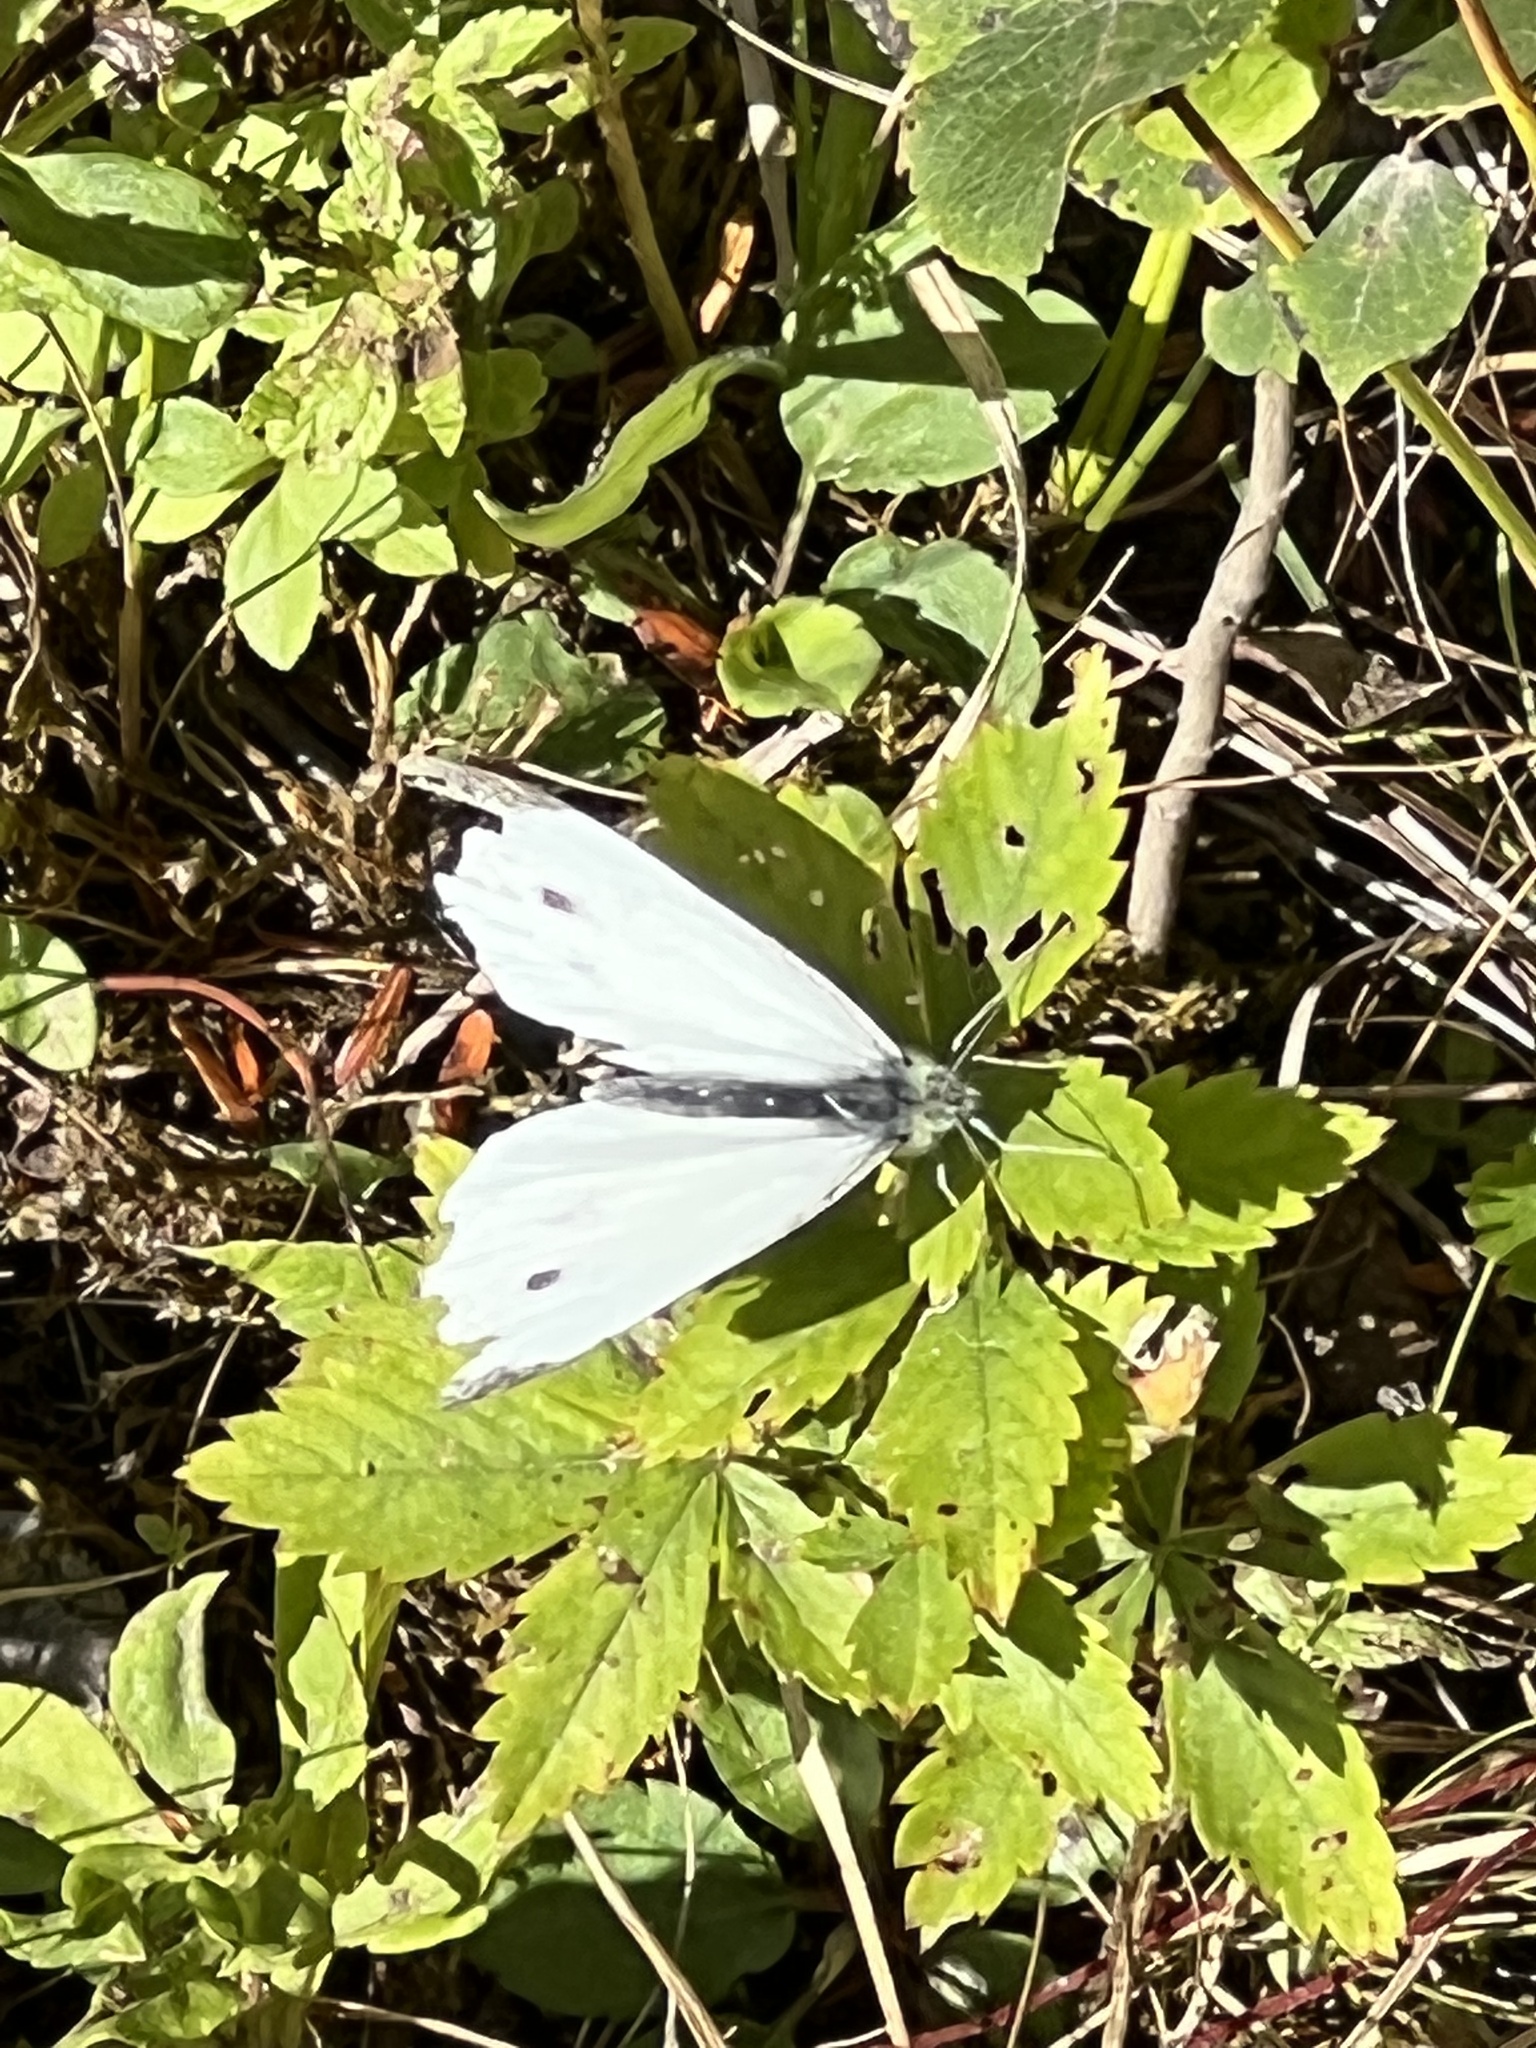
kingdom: Animalia
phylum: Arthropoda
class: Insecta
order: Lepidoptera
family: Pieridae
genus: Pieris
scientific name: Pieris rapae
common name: Small white
